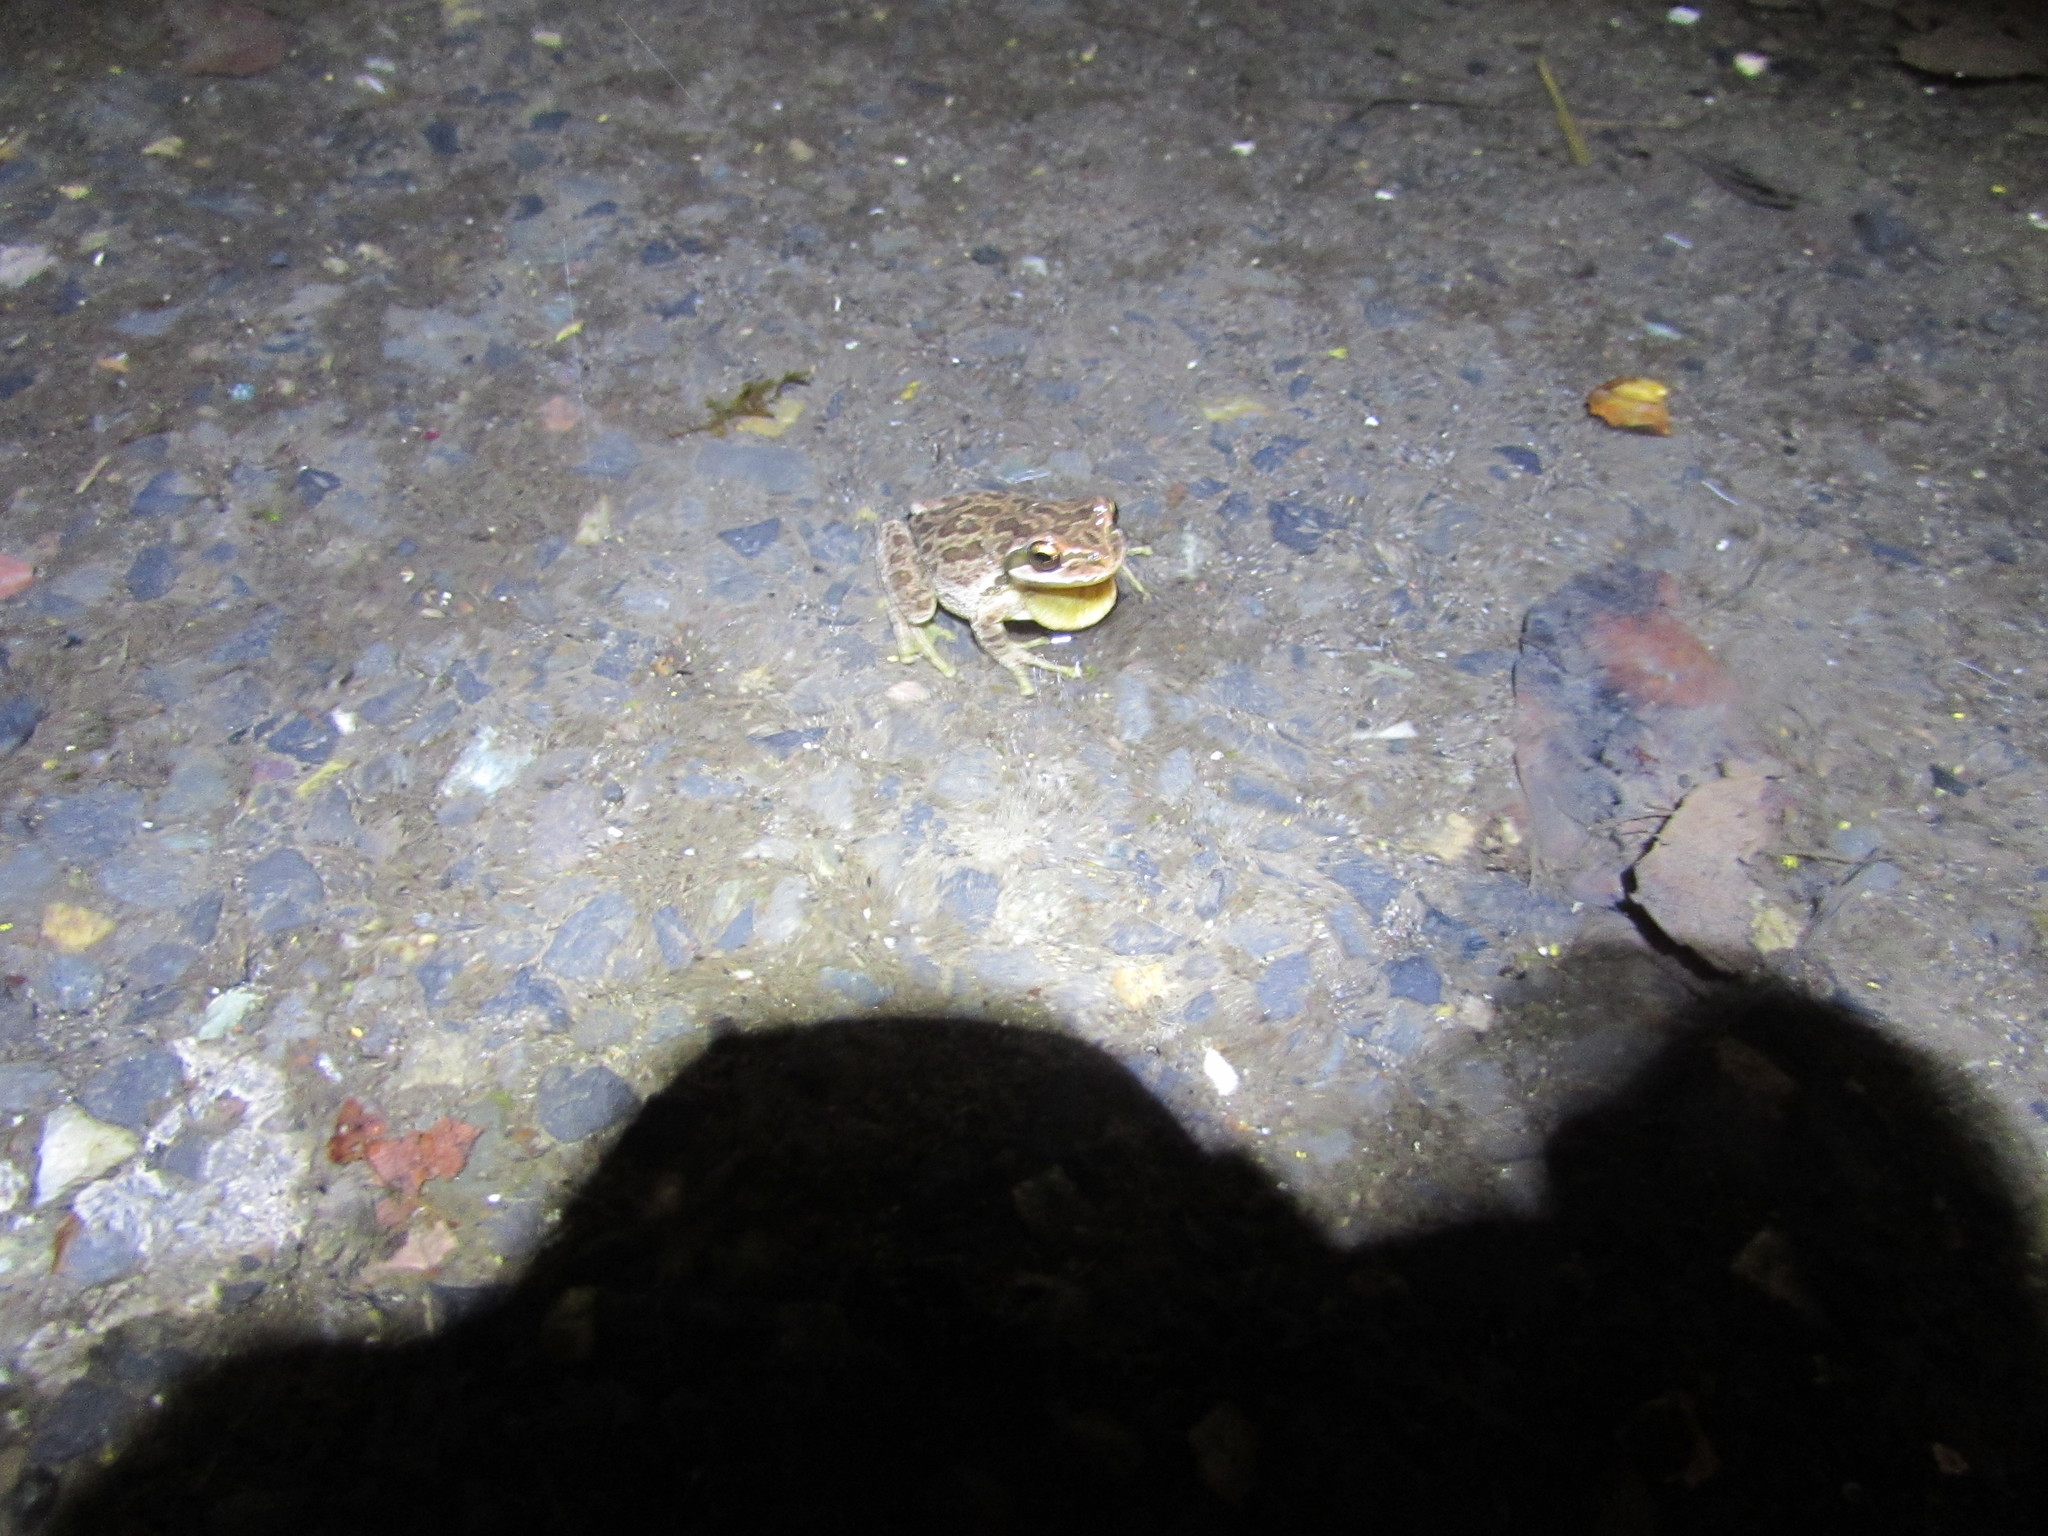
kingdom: Animalia
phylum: Chordata
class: Amphibia
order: Anura
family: Hylidae
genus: Pseudacris
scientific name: Pseudacris regilla
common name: Pacific chorus frog
